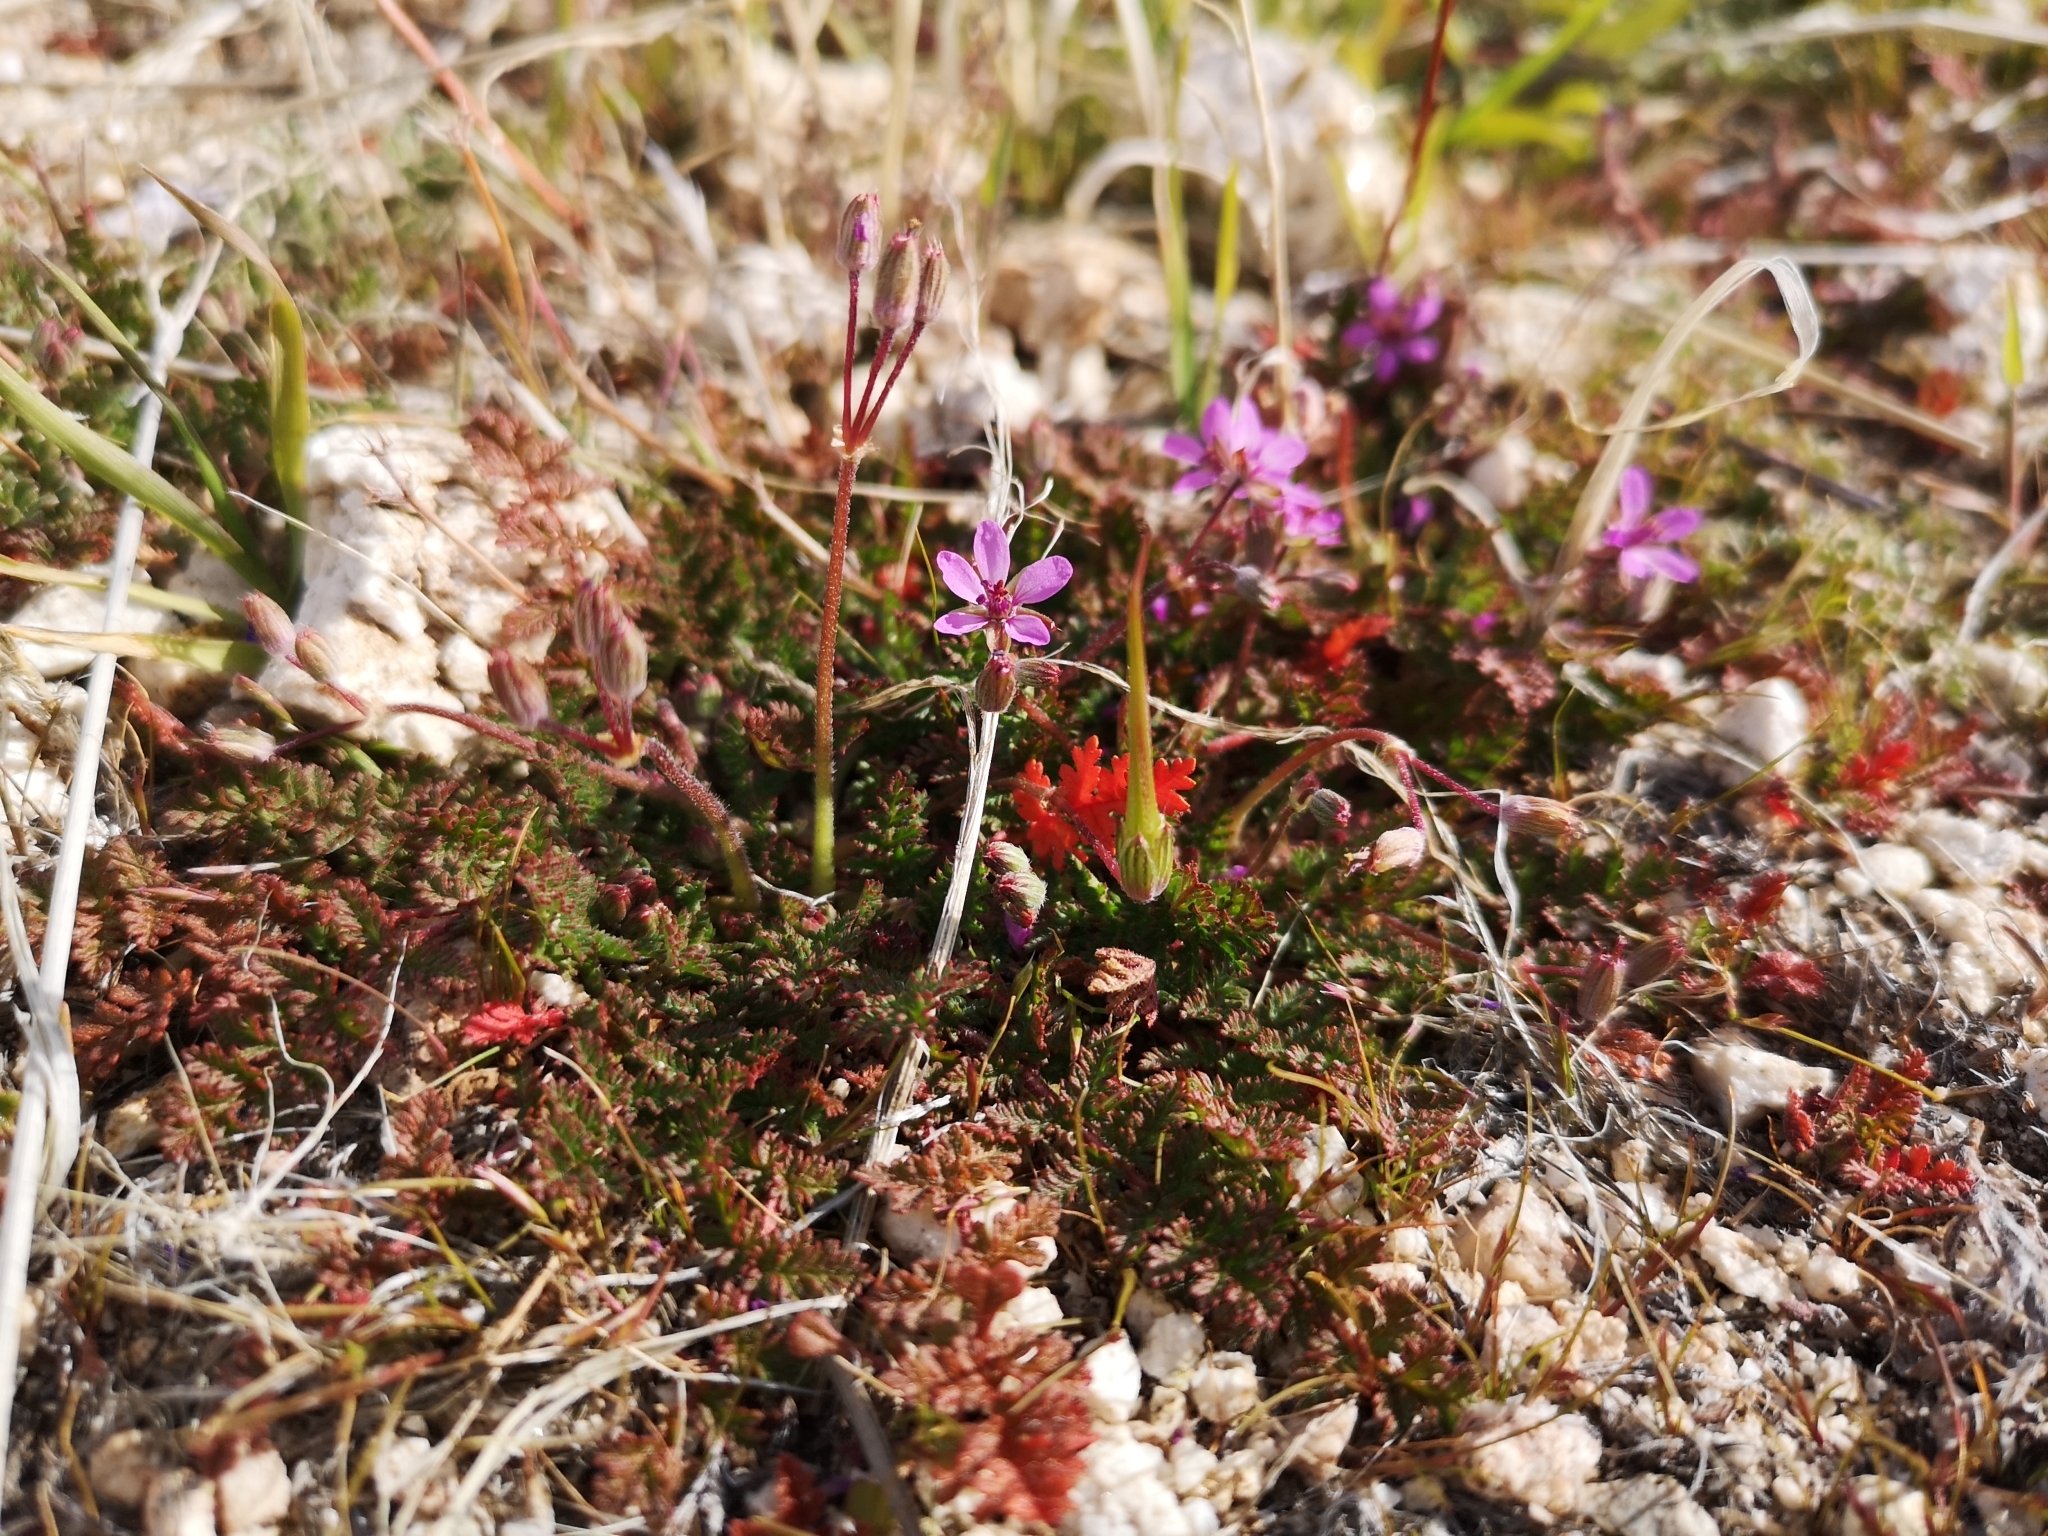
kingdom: Plantae
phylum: Tracheophyta
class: Magnoliopsida
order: Geraniales
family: Geraniaceae
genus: Erodium
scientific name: Erodium cicutarium
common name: Common stork's-bill
